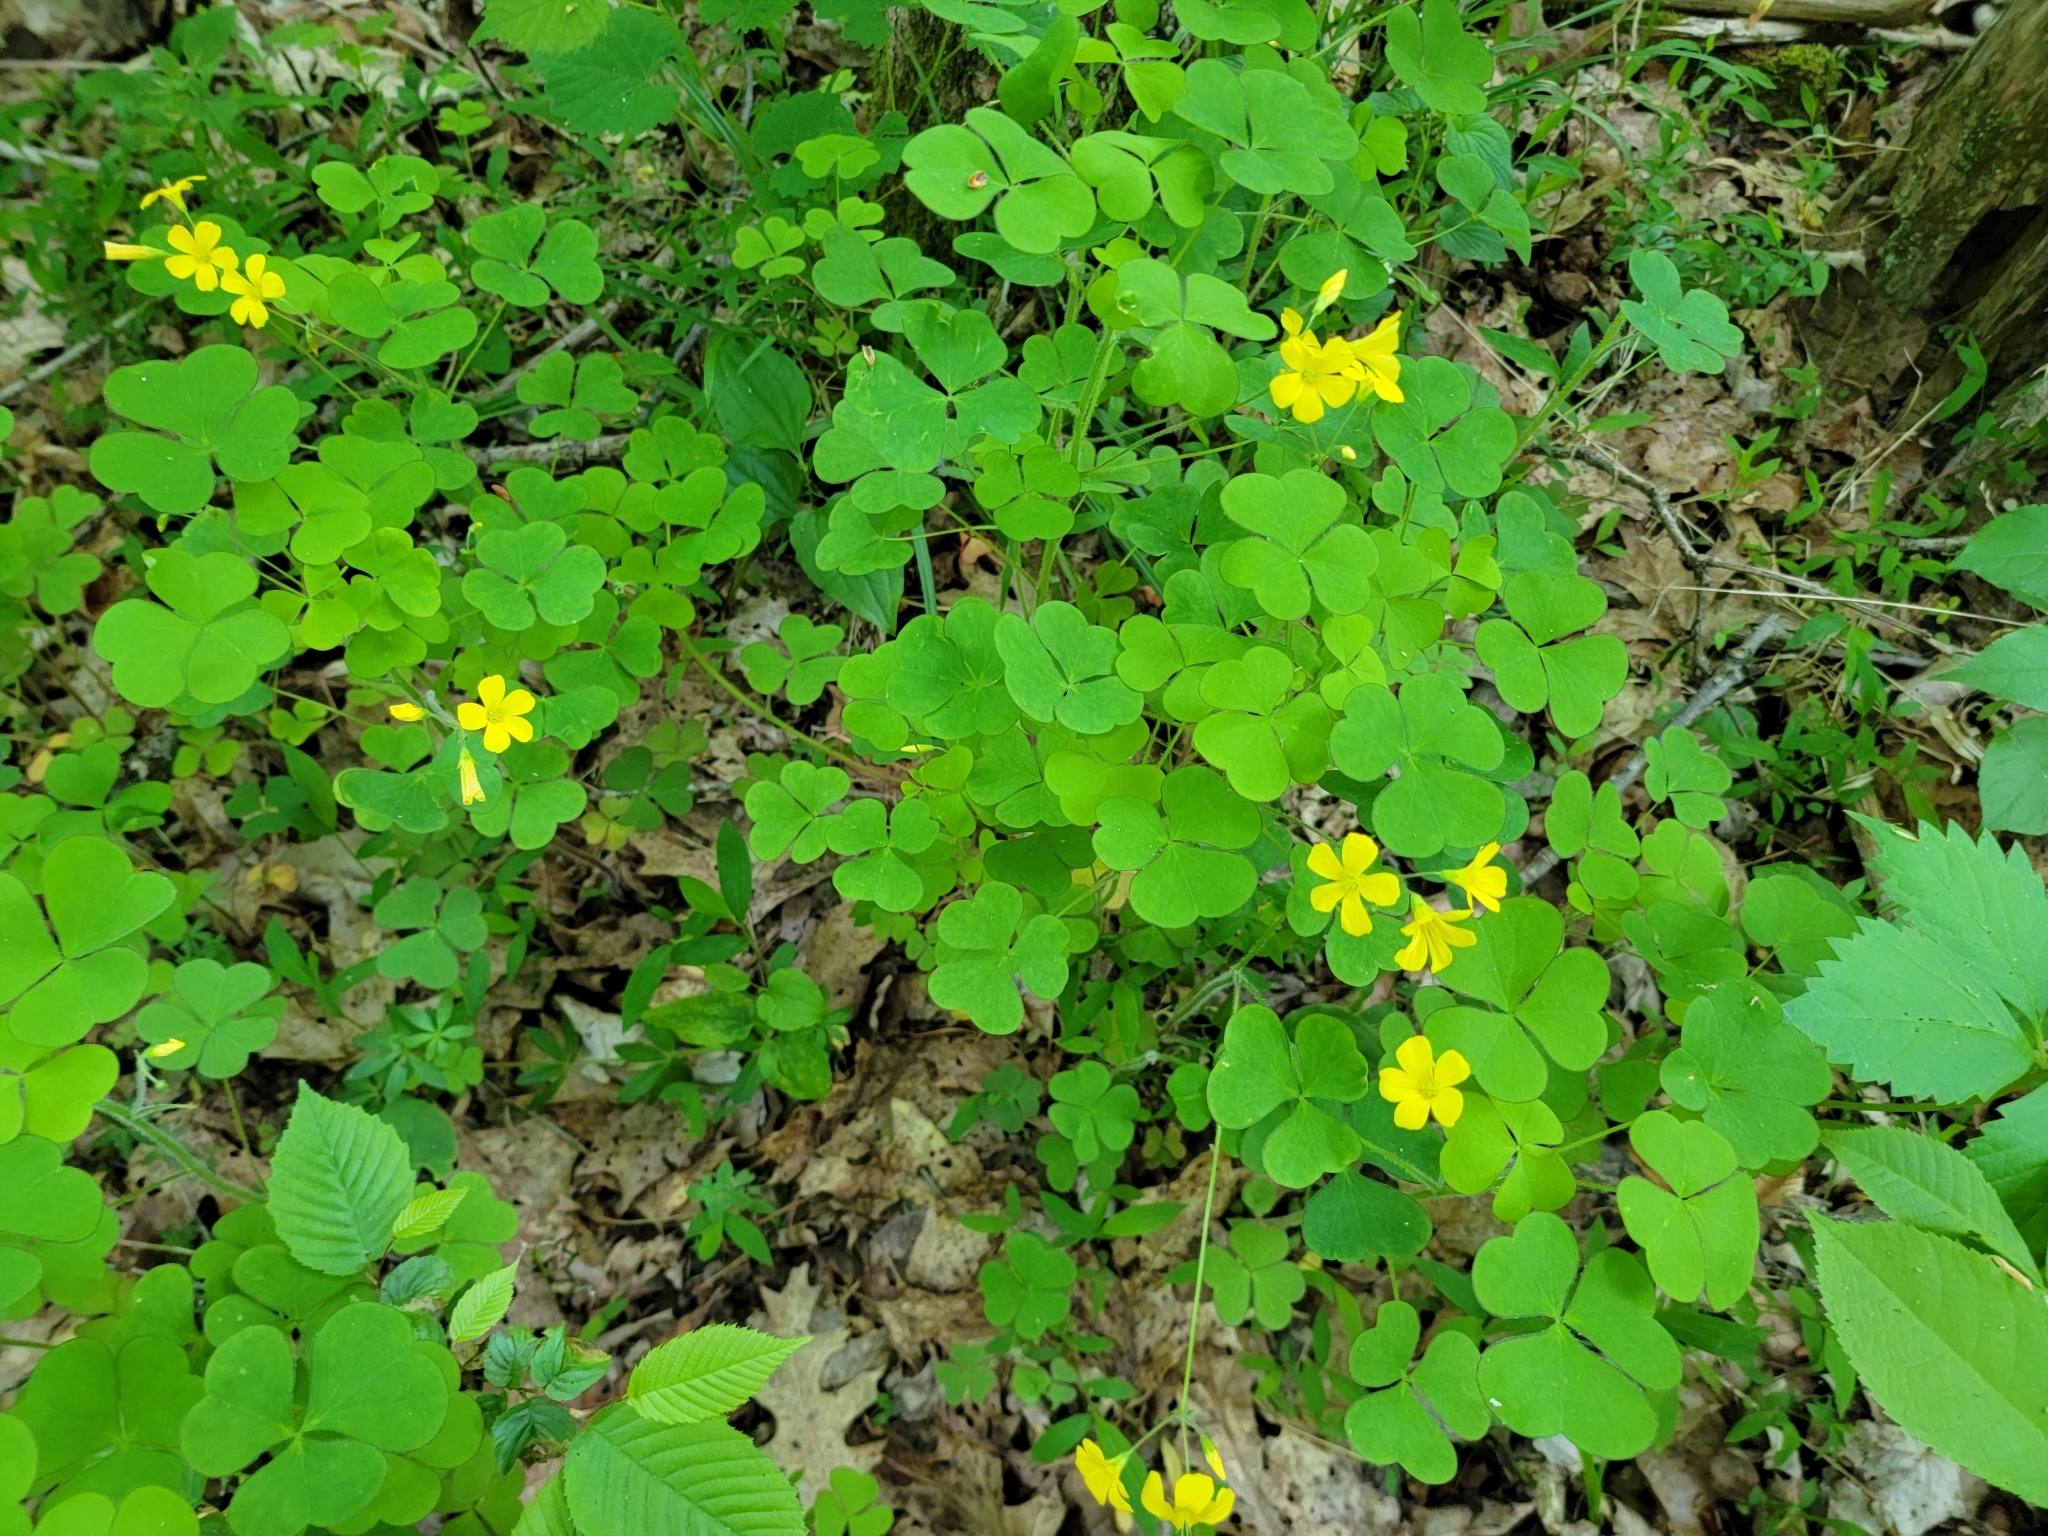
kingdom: Plantae
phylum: Tracheophyta
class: Magnoliopsida
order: Oxalidales
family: Oxalidaceae
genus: Oxalis
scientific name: Oxalis grandis
